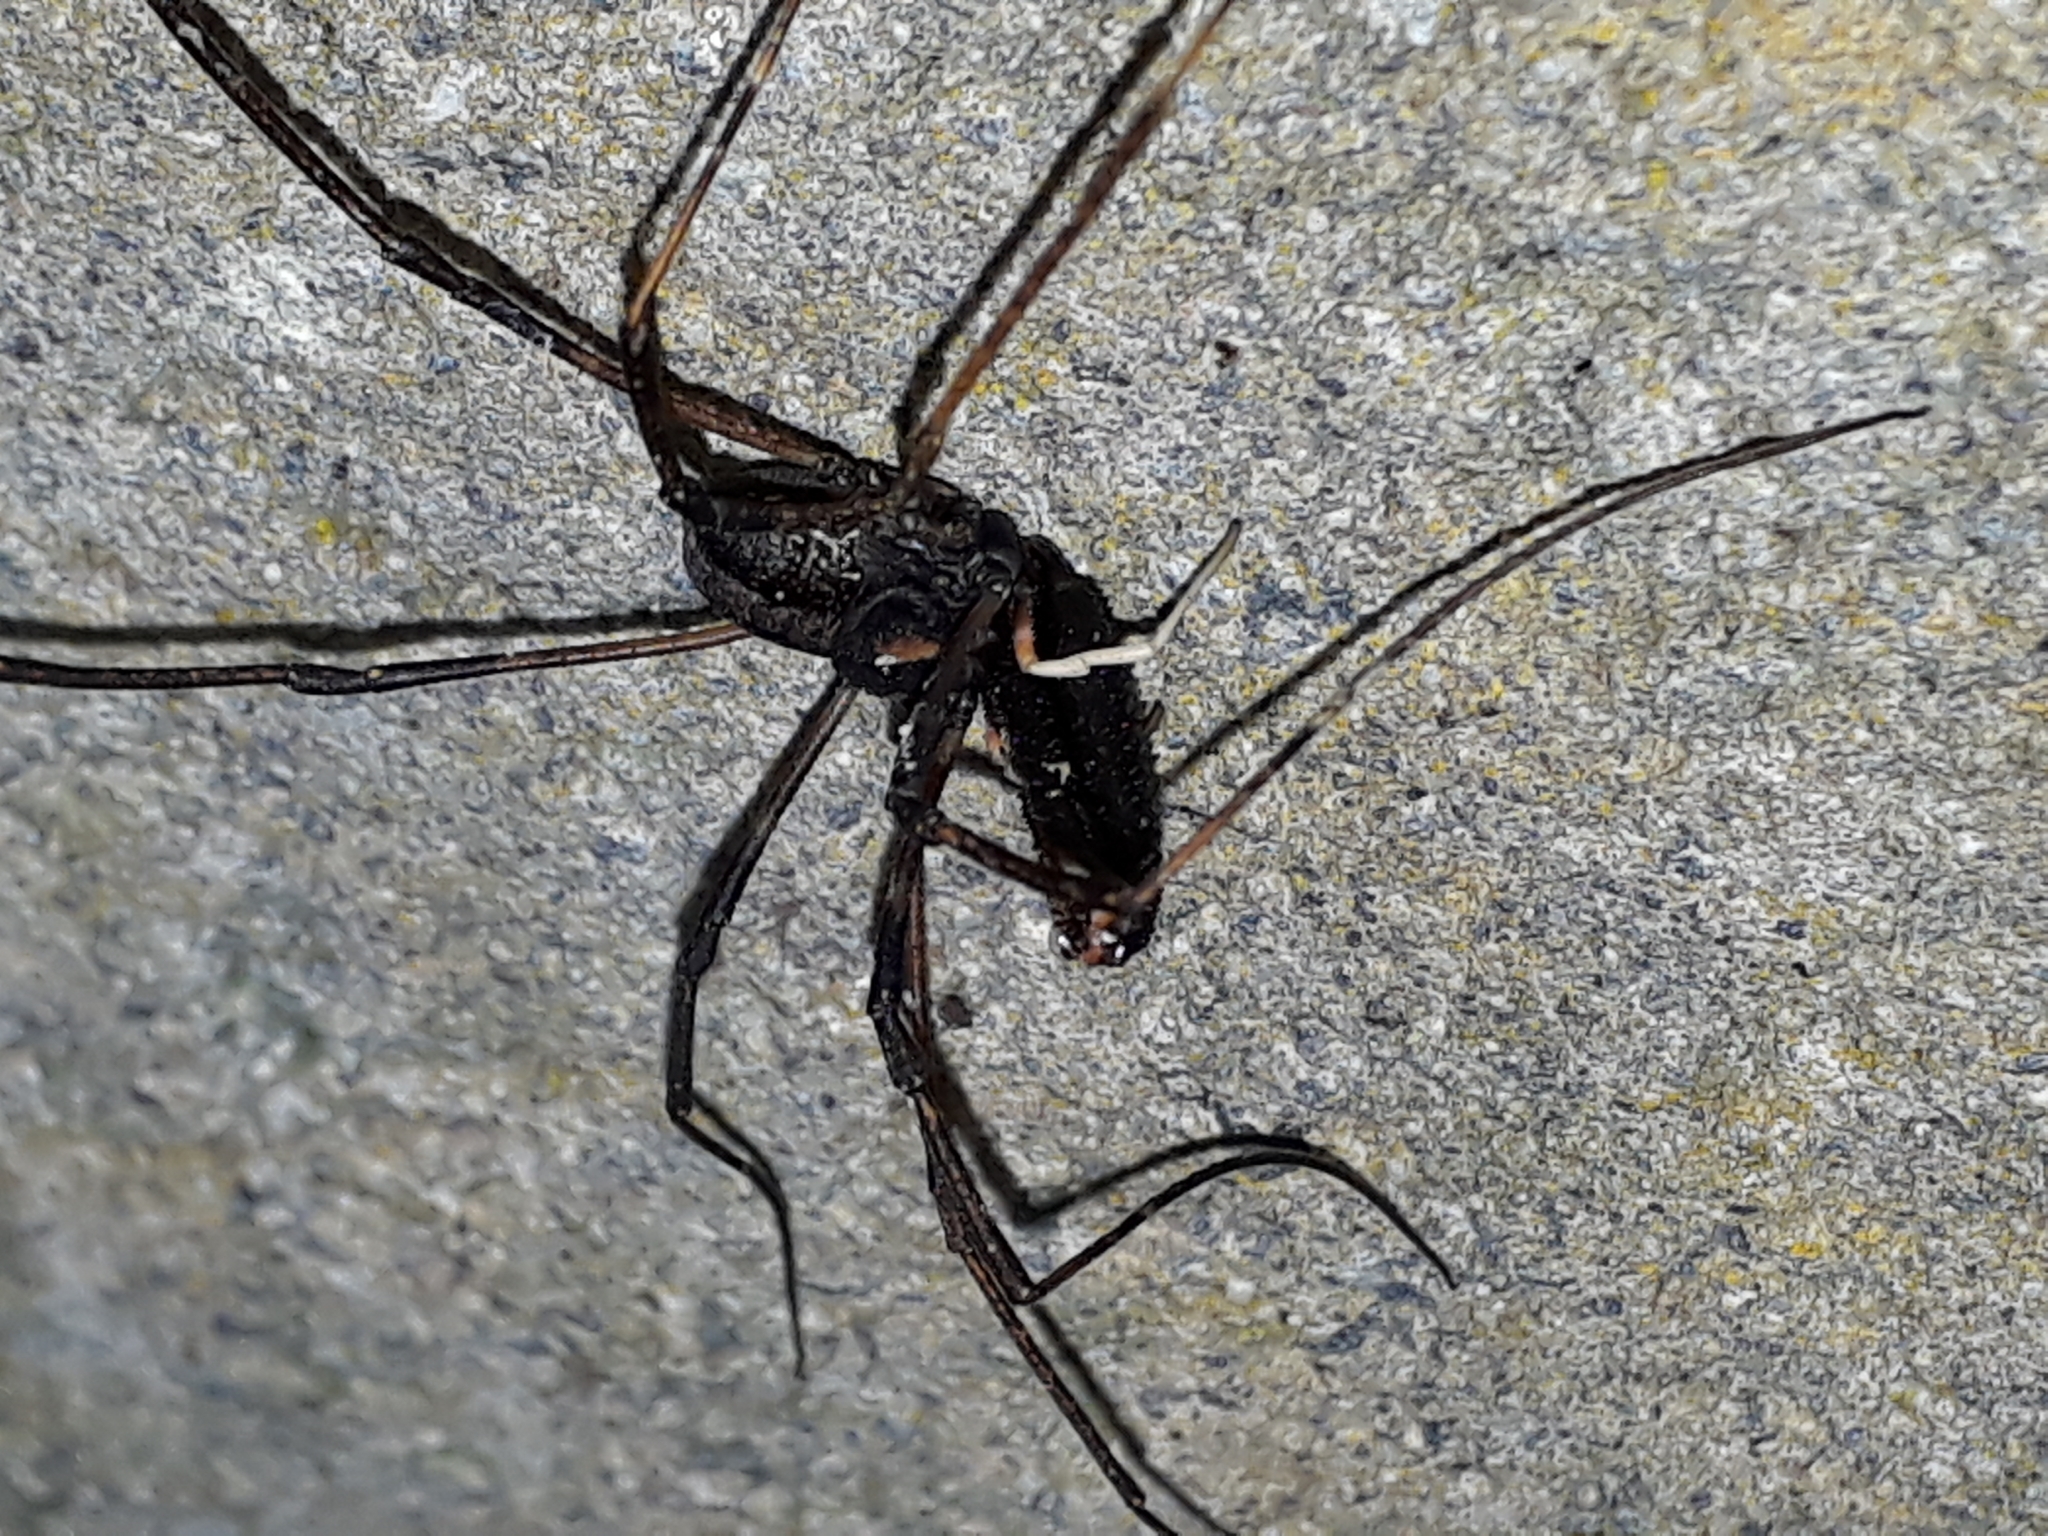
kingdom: Animalia
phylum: Arthropoda
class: Arachnida
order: Opiliones
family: Neopilionidae
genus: Forsteropsalis
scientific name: Forsteropsalis inconstans
